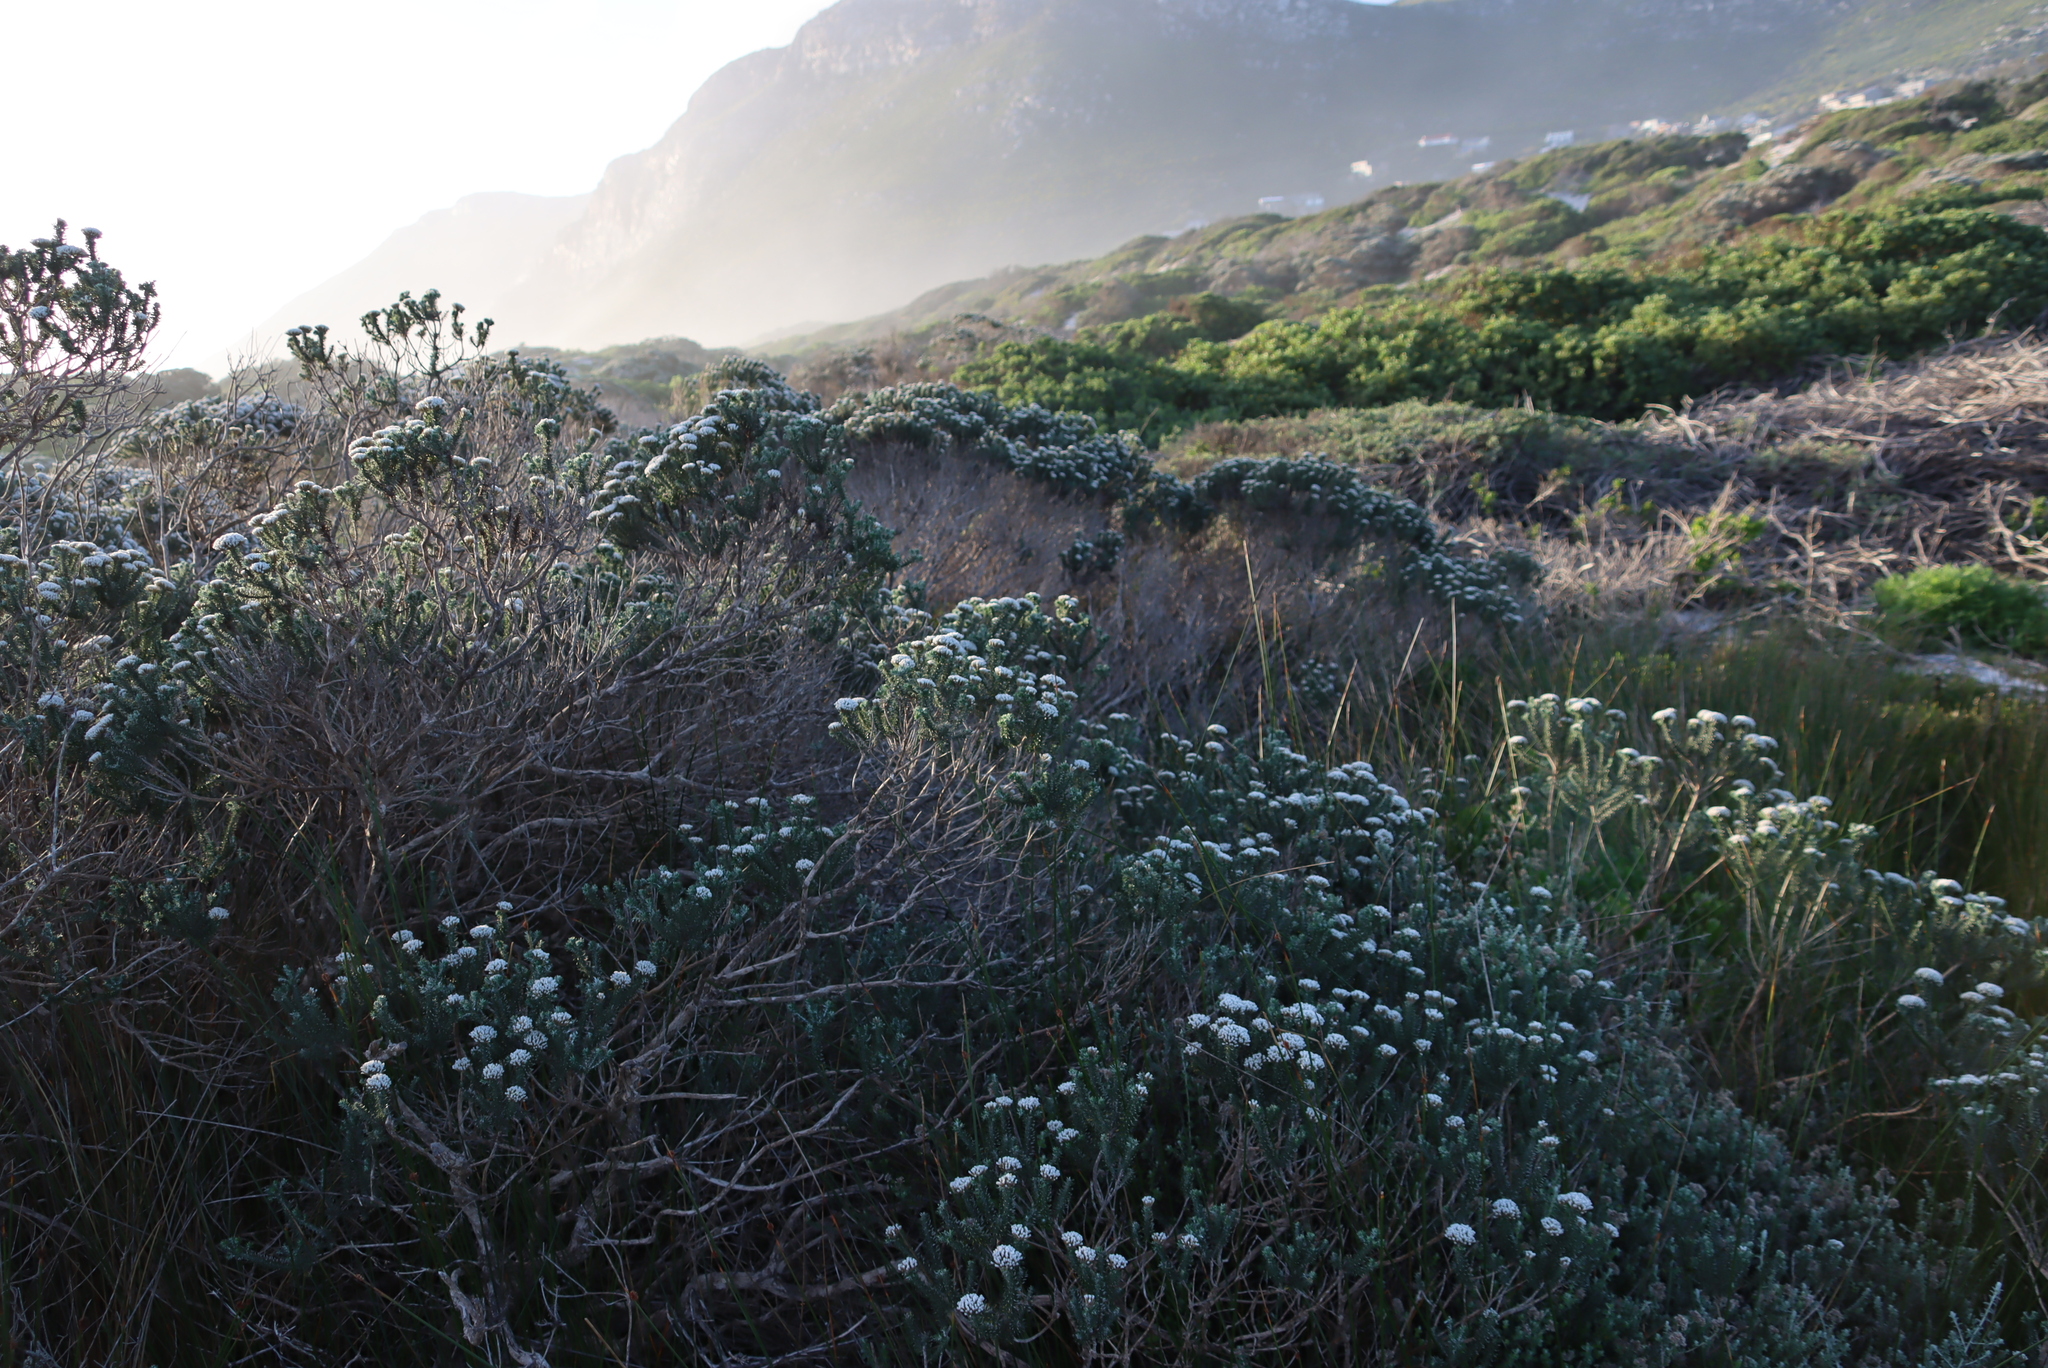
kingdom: Plantae
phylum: Tracheophyta
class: Magnoliopsida
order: Asterales
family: Asteraceae
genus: Metalasia
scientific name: Metalasia muricata
